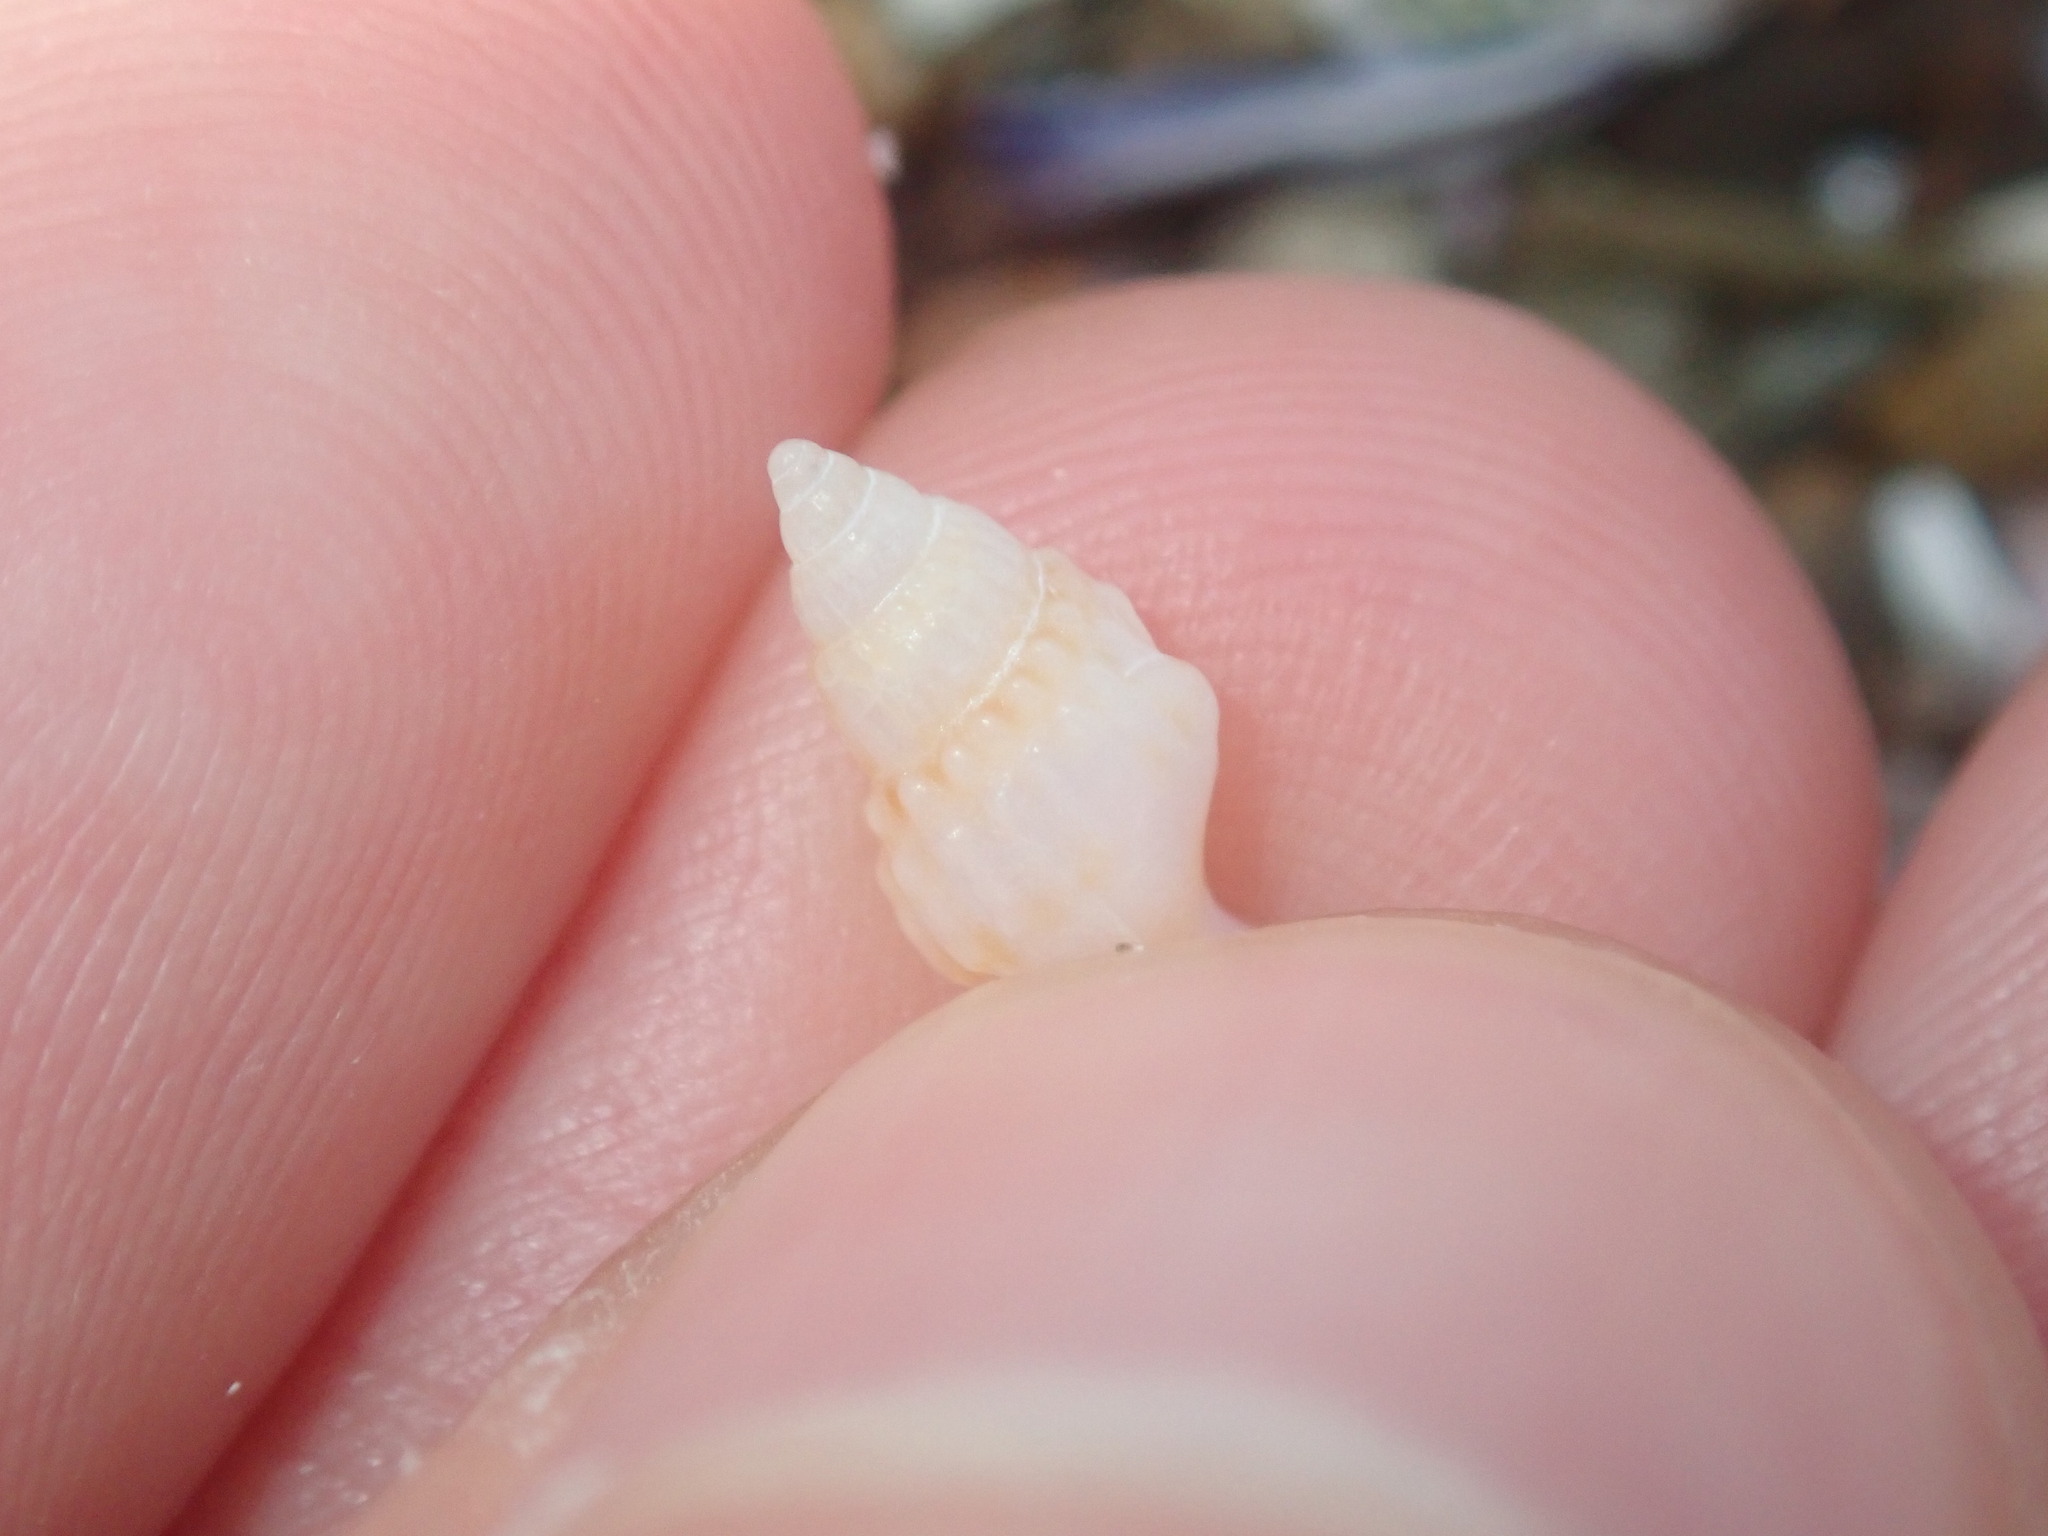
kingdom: Animalia
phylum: Mollusca
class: Gastropoda
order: Neogastropoda
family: Nassariidae
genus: Nassarius
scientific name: Nassarius nigellus
